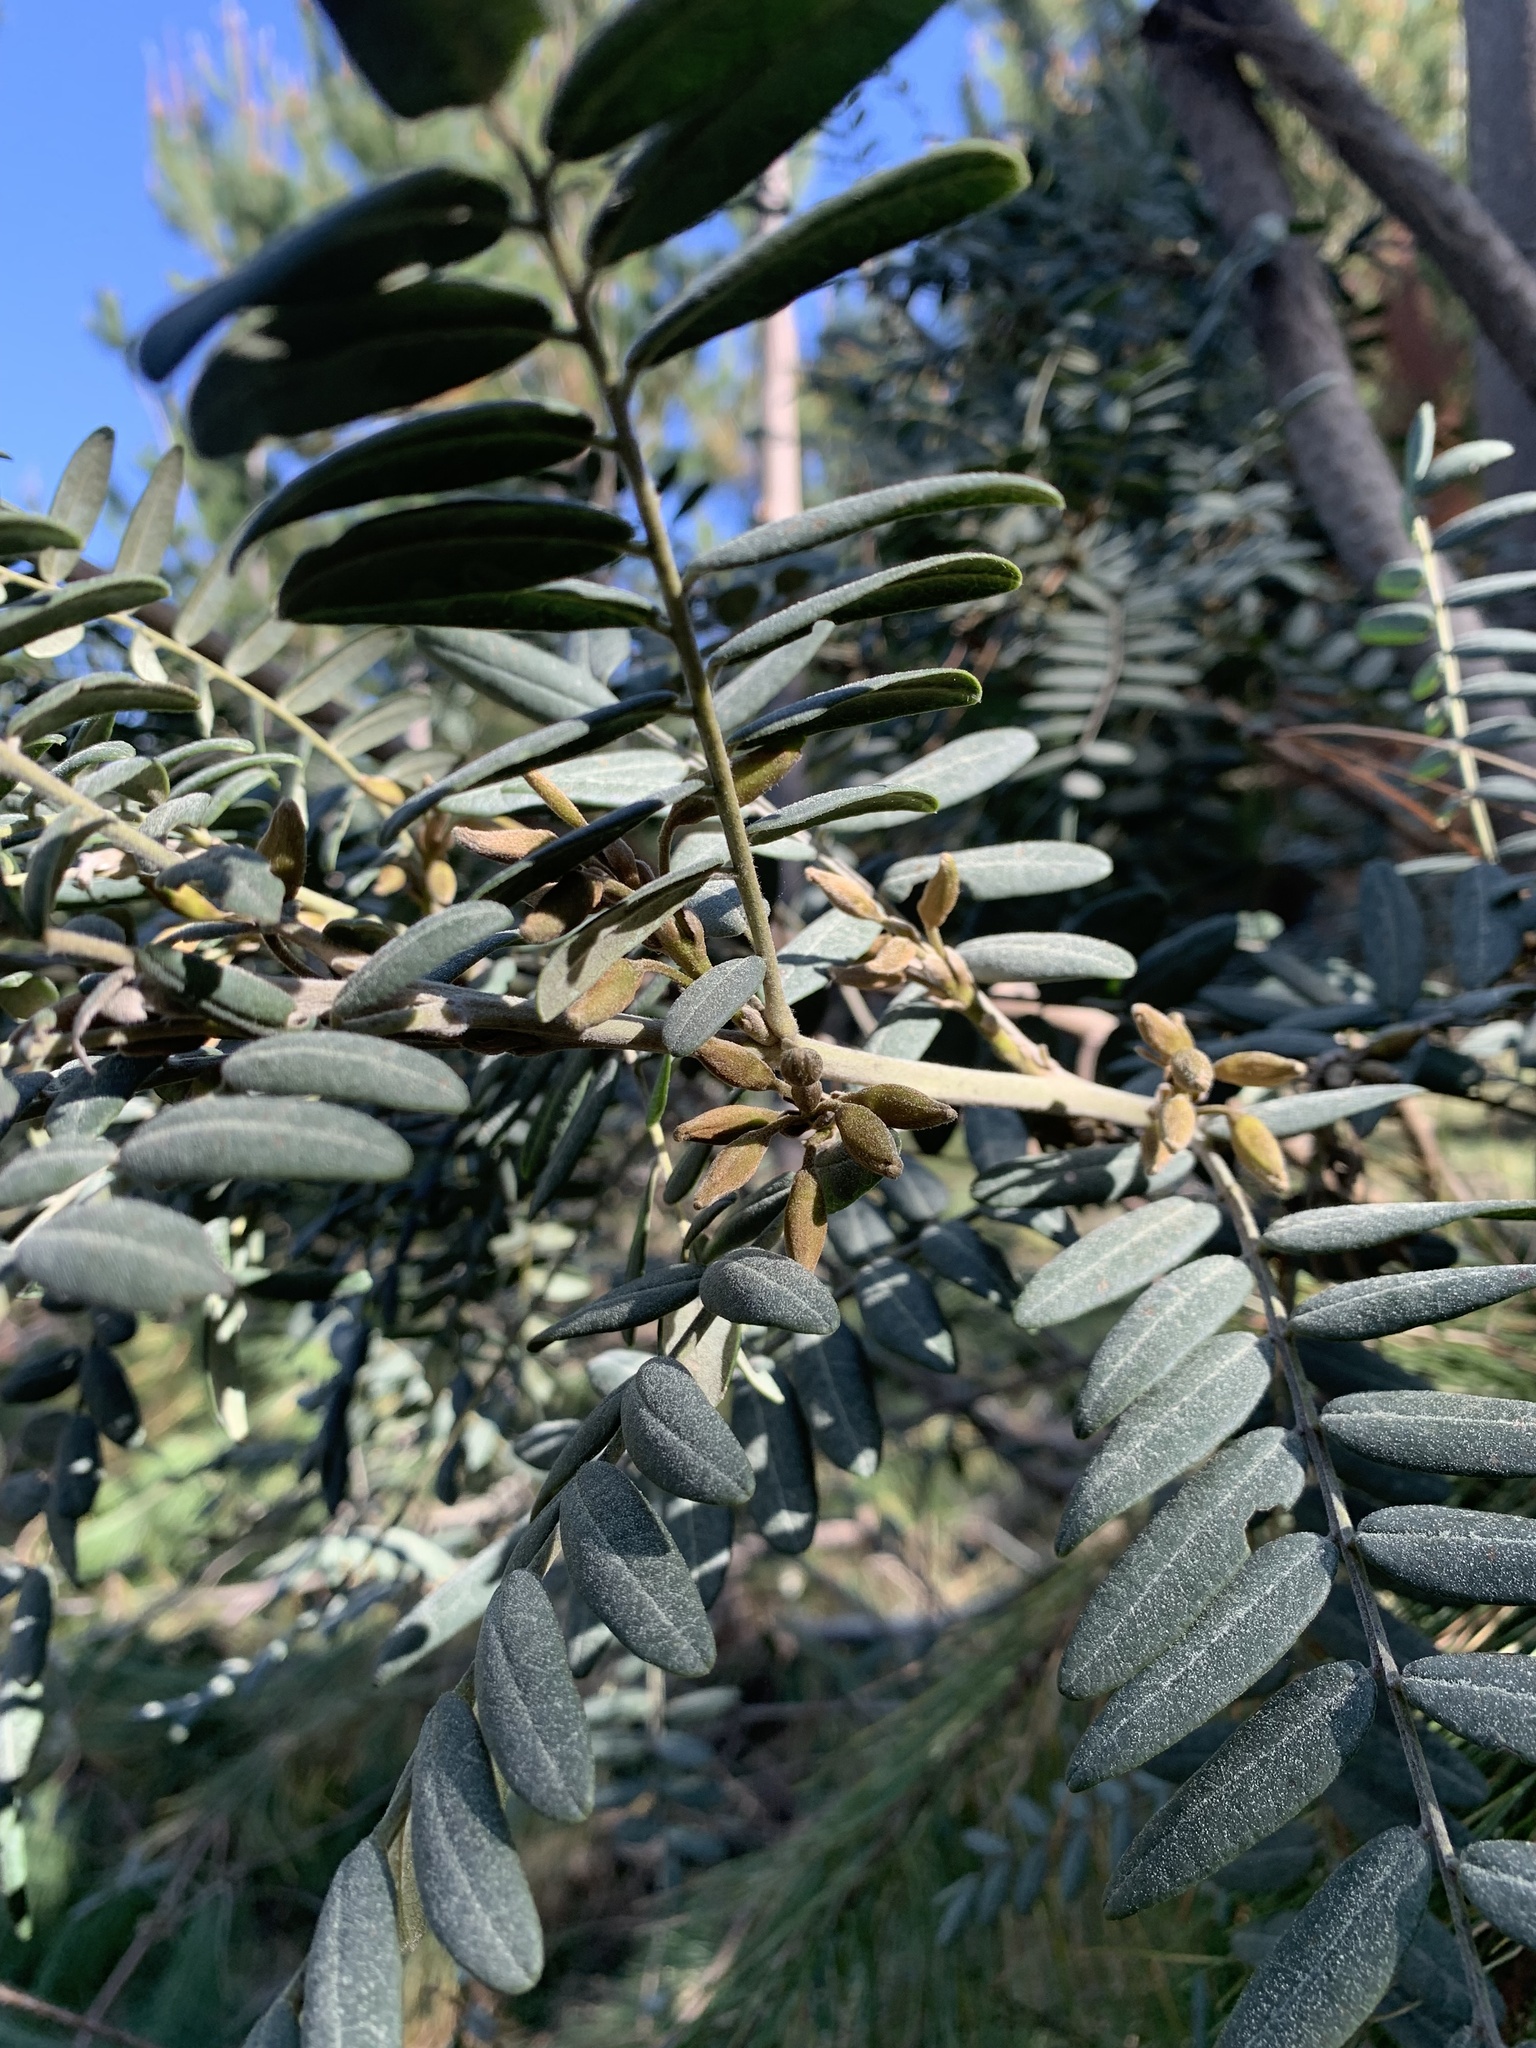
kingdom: Plantae
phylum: Tracheophyta
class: Magnoliopsida
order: Fabales
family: Fabaceae
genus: Sophora
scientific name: Sophora macrocarpa
